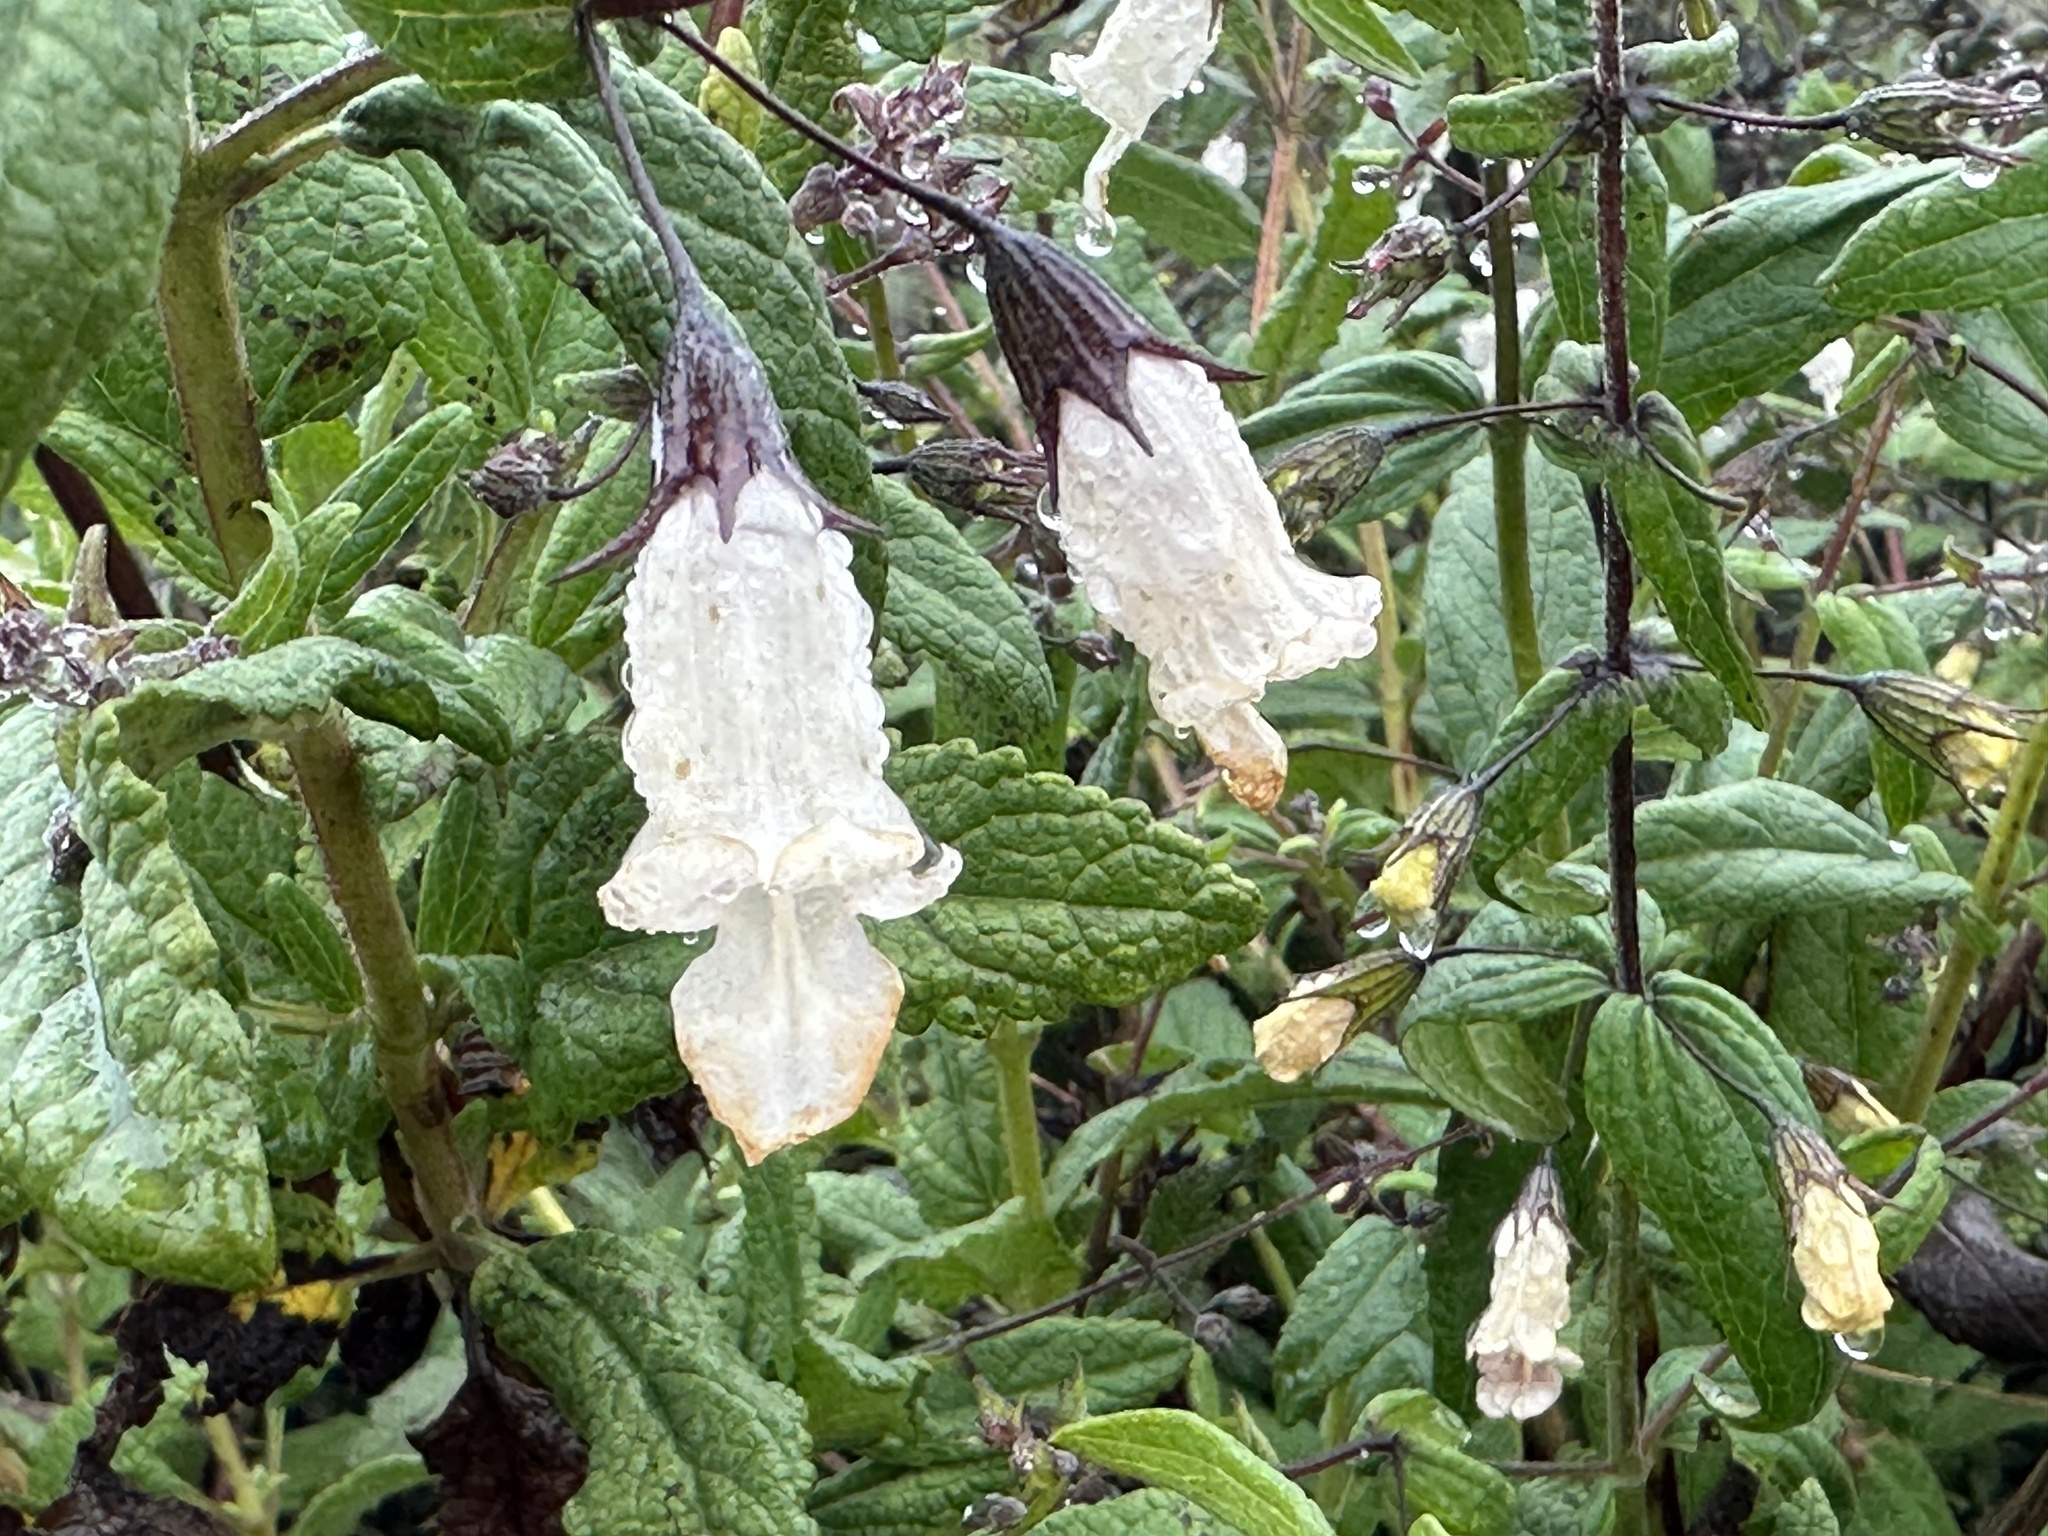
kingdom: Plantae
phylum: Tracheophyta
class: Magnoliopsida
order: Lamiales
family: Lamiaceae
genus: Lepechinia
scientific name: Lepechinia ganderi
